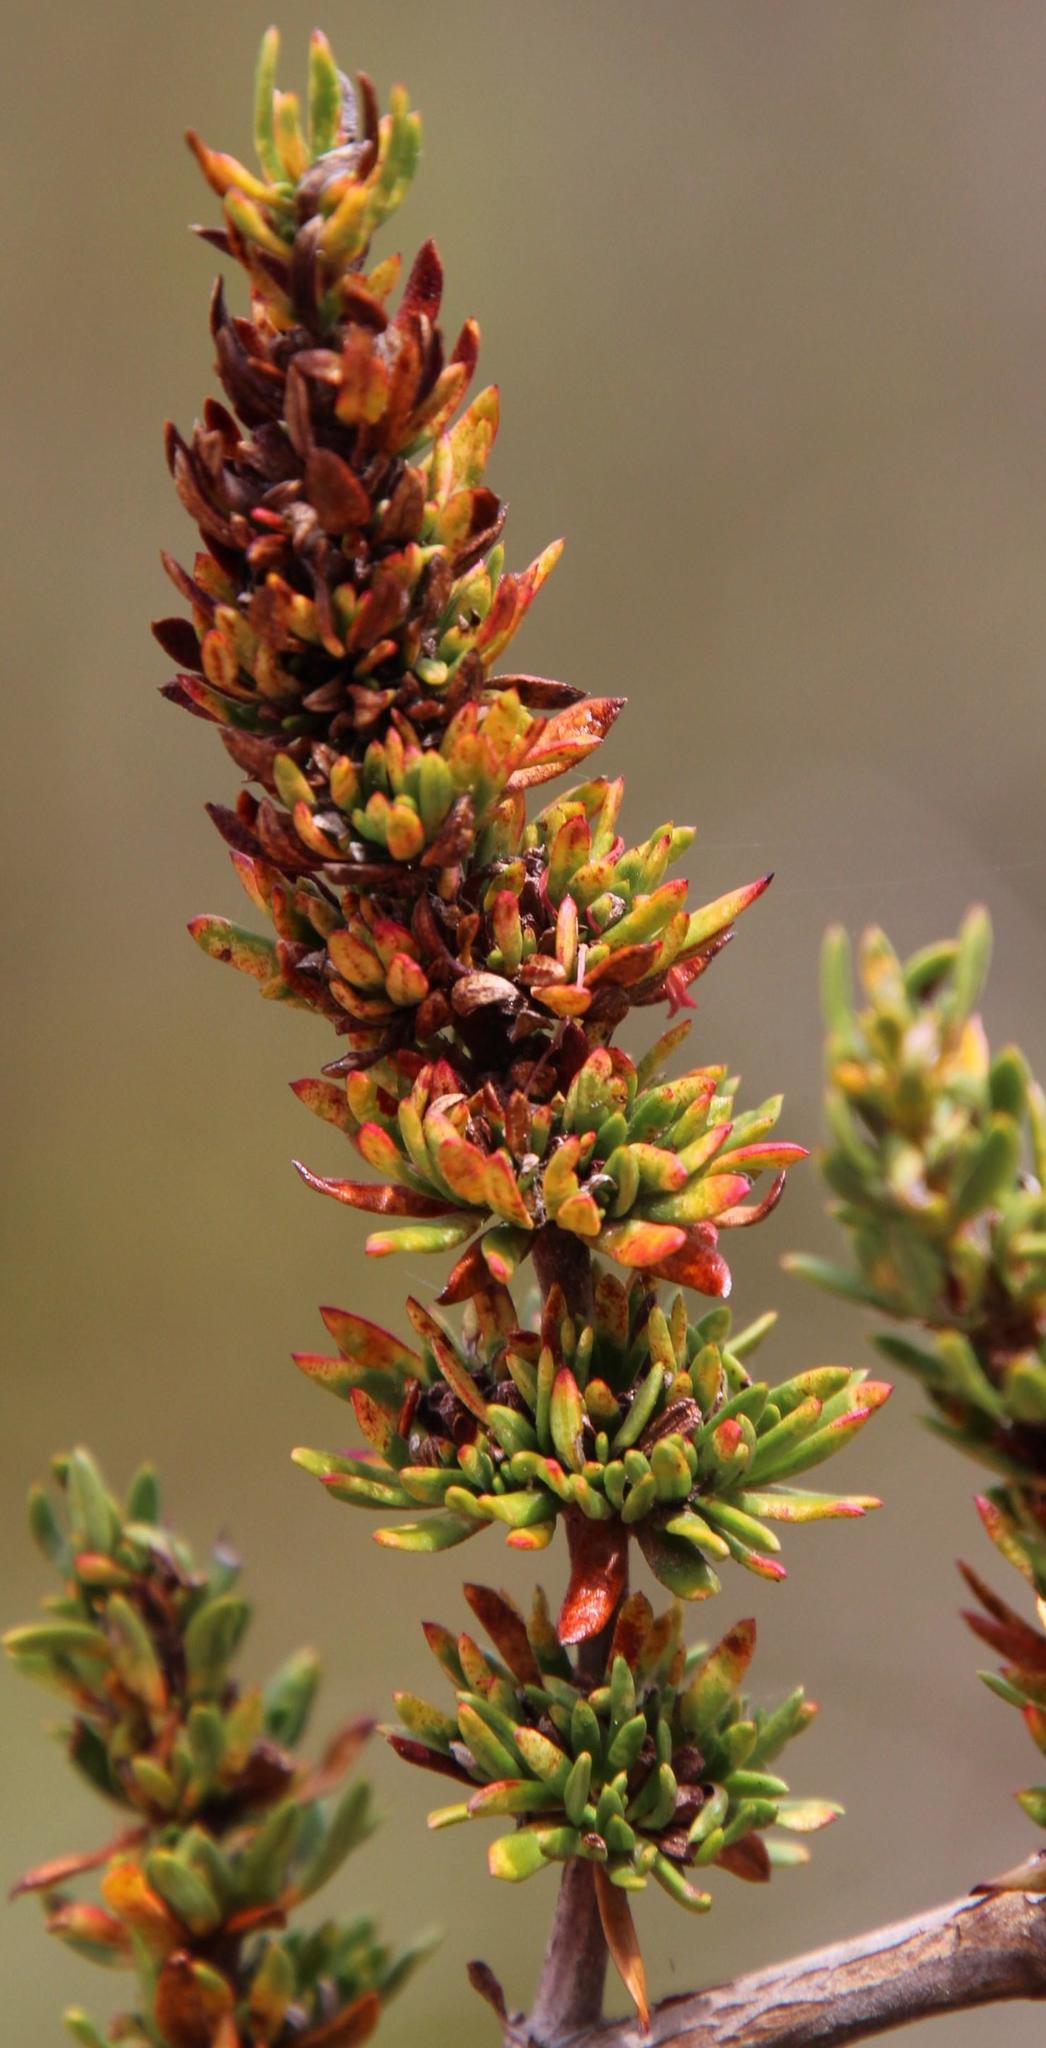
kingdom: Plantae
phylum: Tracheophyta
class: Magnoliopsida
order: Gentianales
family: Rubiaceae
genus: Anthospermum
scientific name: Anthospermum spathulatum
